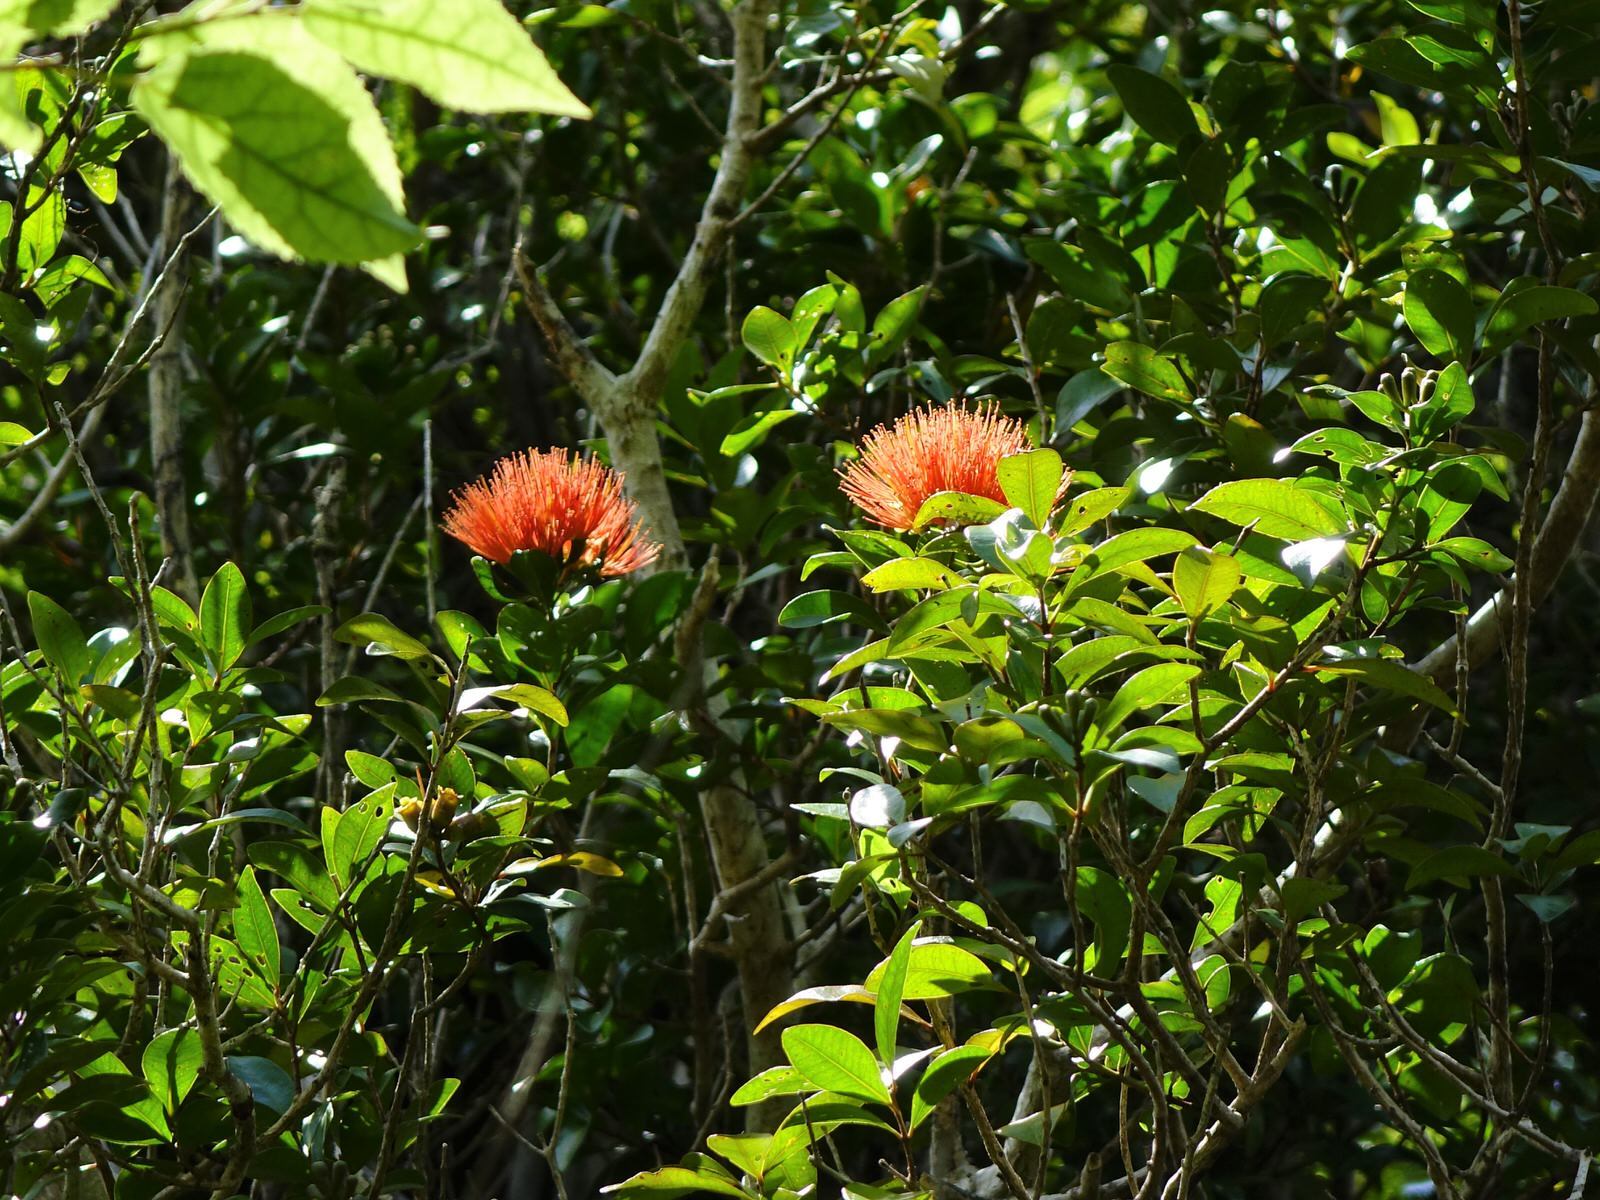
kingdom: Plantae
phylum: Tracheophyta
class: Magnoliopsida
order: Myrtales
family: Myrtaceae
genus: Metrosideros
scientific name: Metrosideros fulgens
